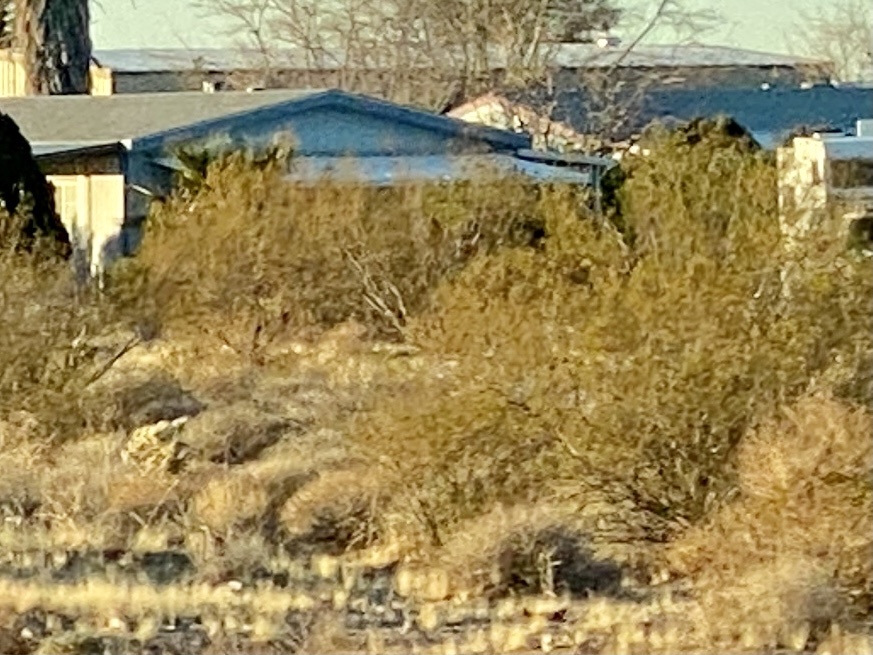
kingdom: Plantae
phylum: Tracheophyta
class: Magnoliopsida
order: Zygophyllales
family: Zygophyllaceae
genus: Larrea
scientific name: Larrea tridentata
